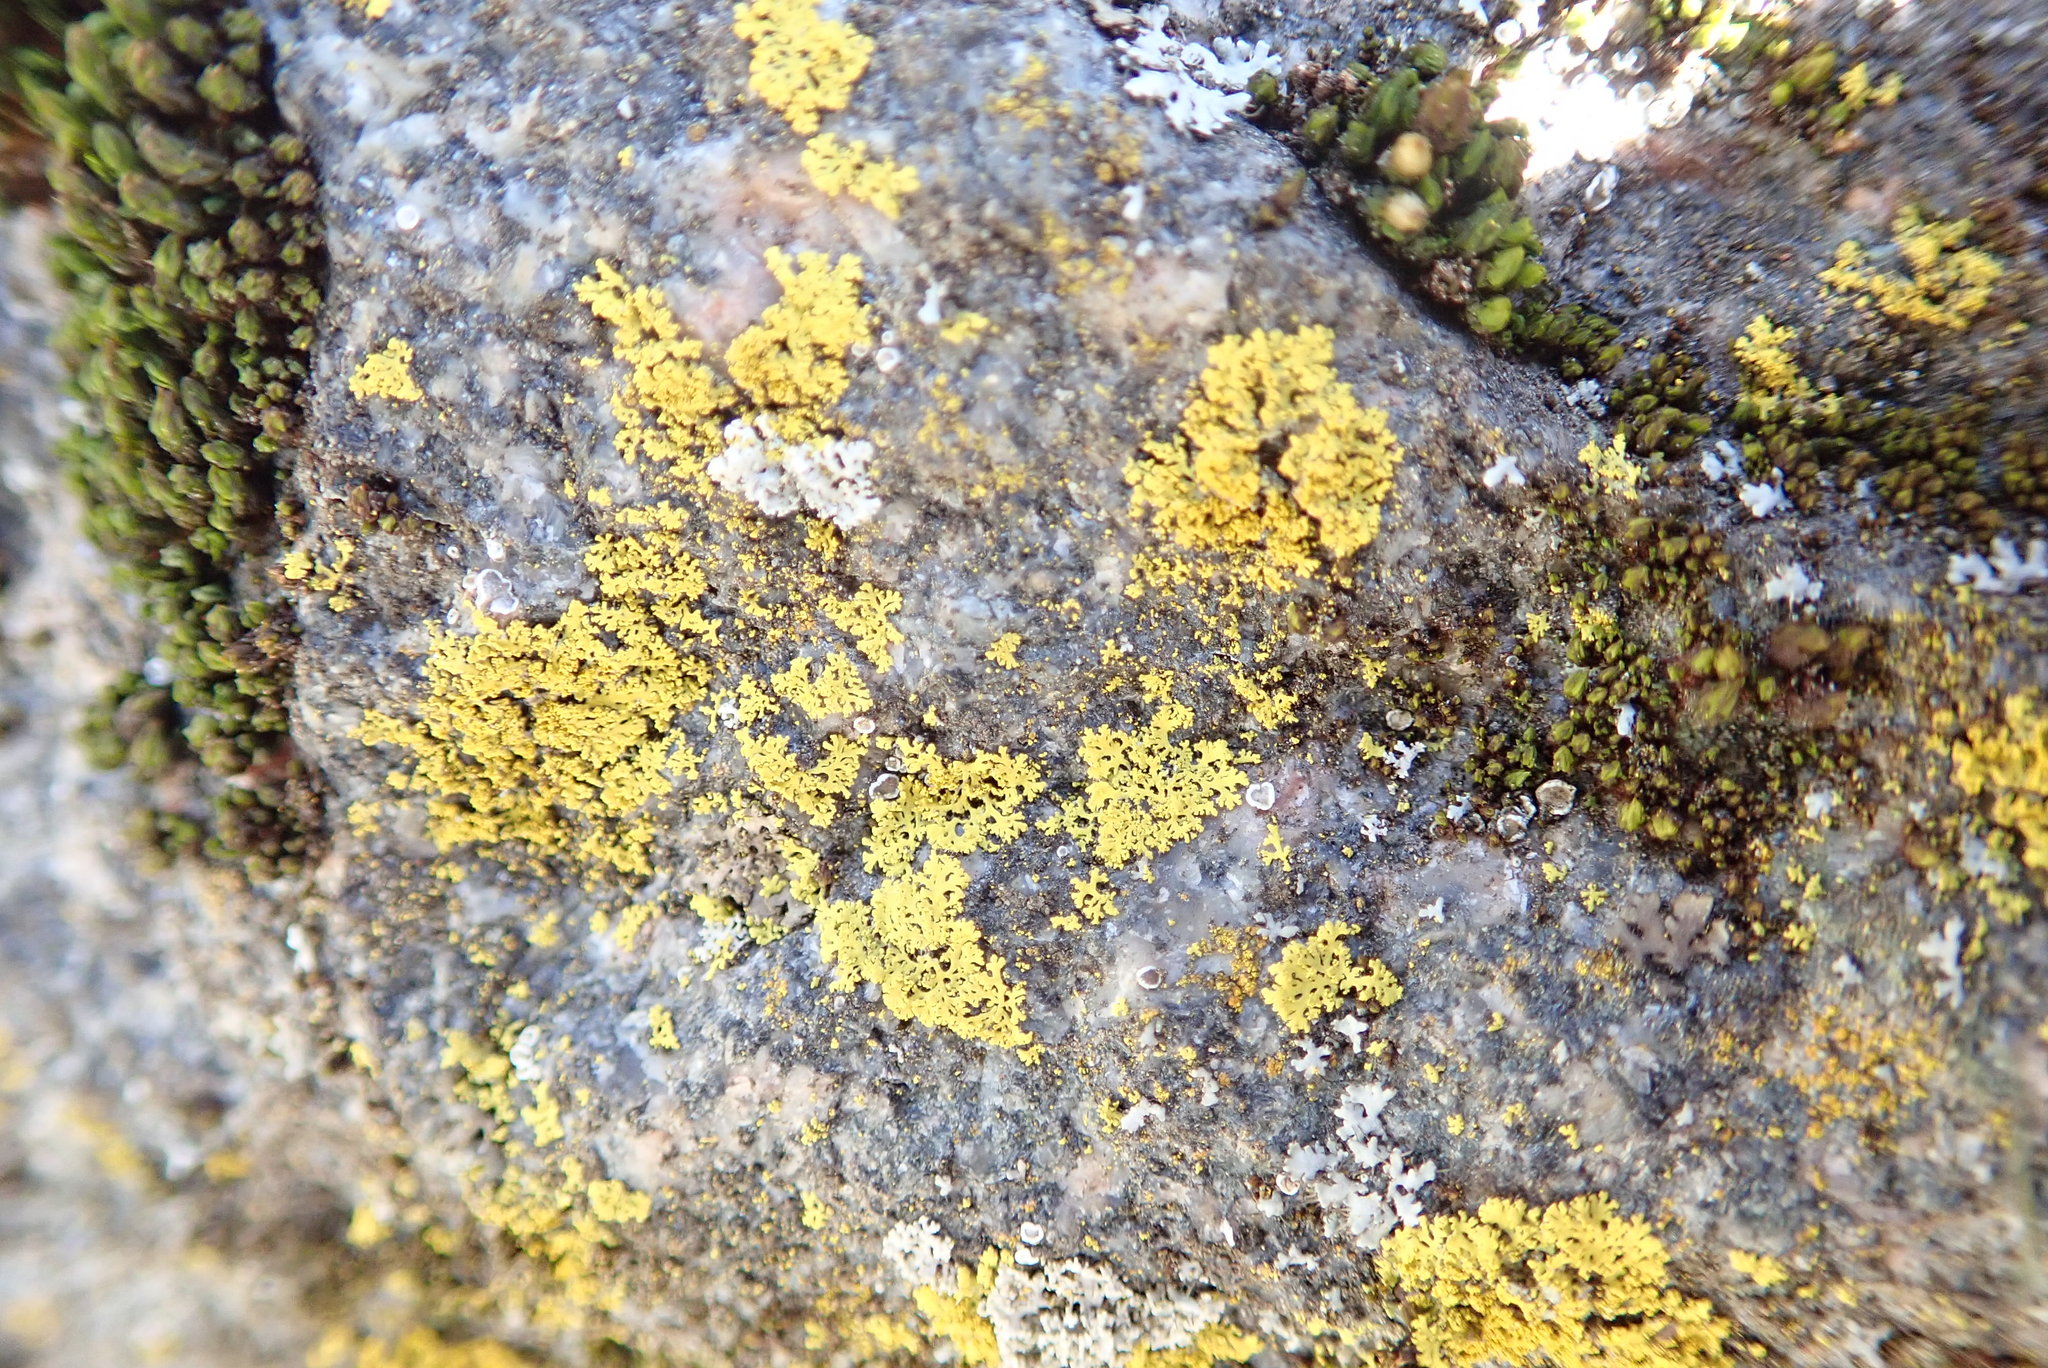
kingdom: Fungi
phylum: Ascomycota
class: Candelariomycetes
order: Candelariales
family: Candelariaceae
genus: Candelaria
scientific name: Candelaria concolor
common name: Candleflame lichen
